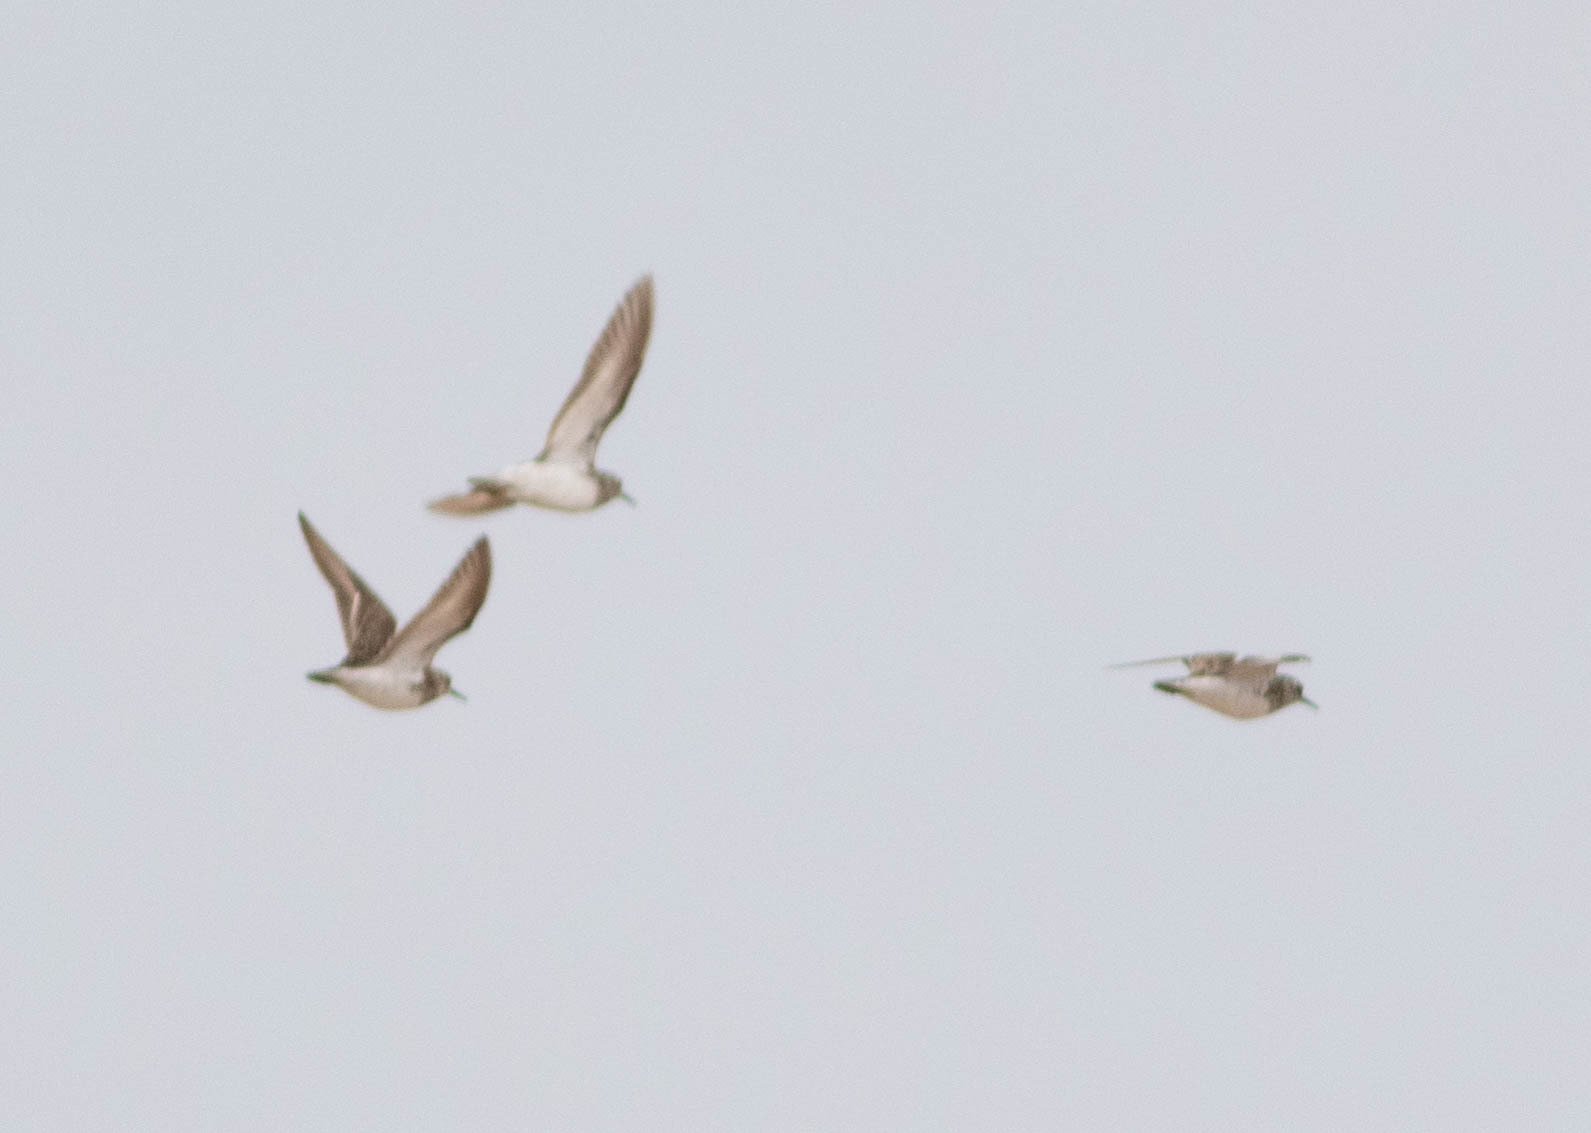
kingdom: Animalia
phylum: Chordata
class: Aves
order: Charadriiformes
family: Scolopacidae
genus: Calidris
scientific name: Calidris minutilla
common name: Least sandpiper
